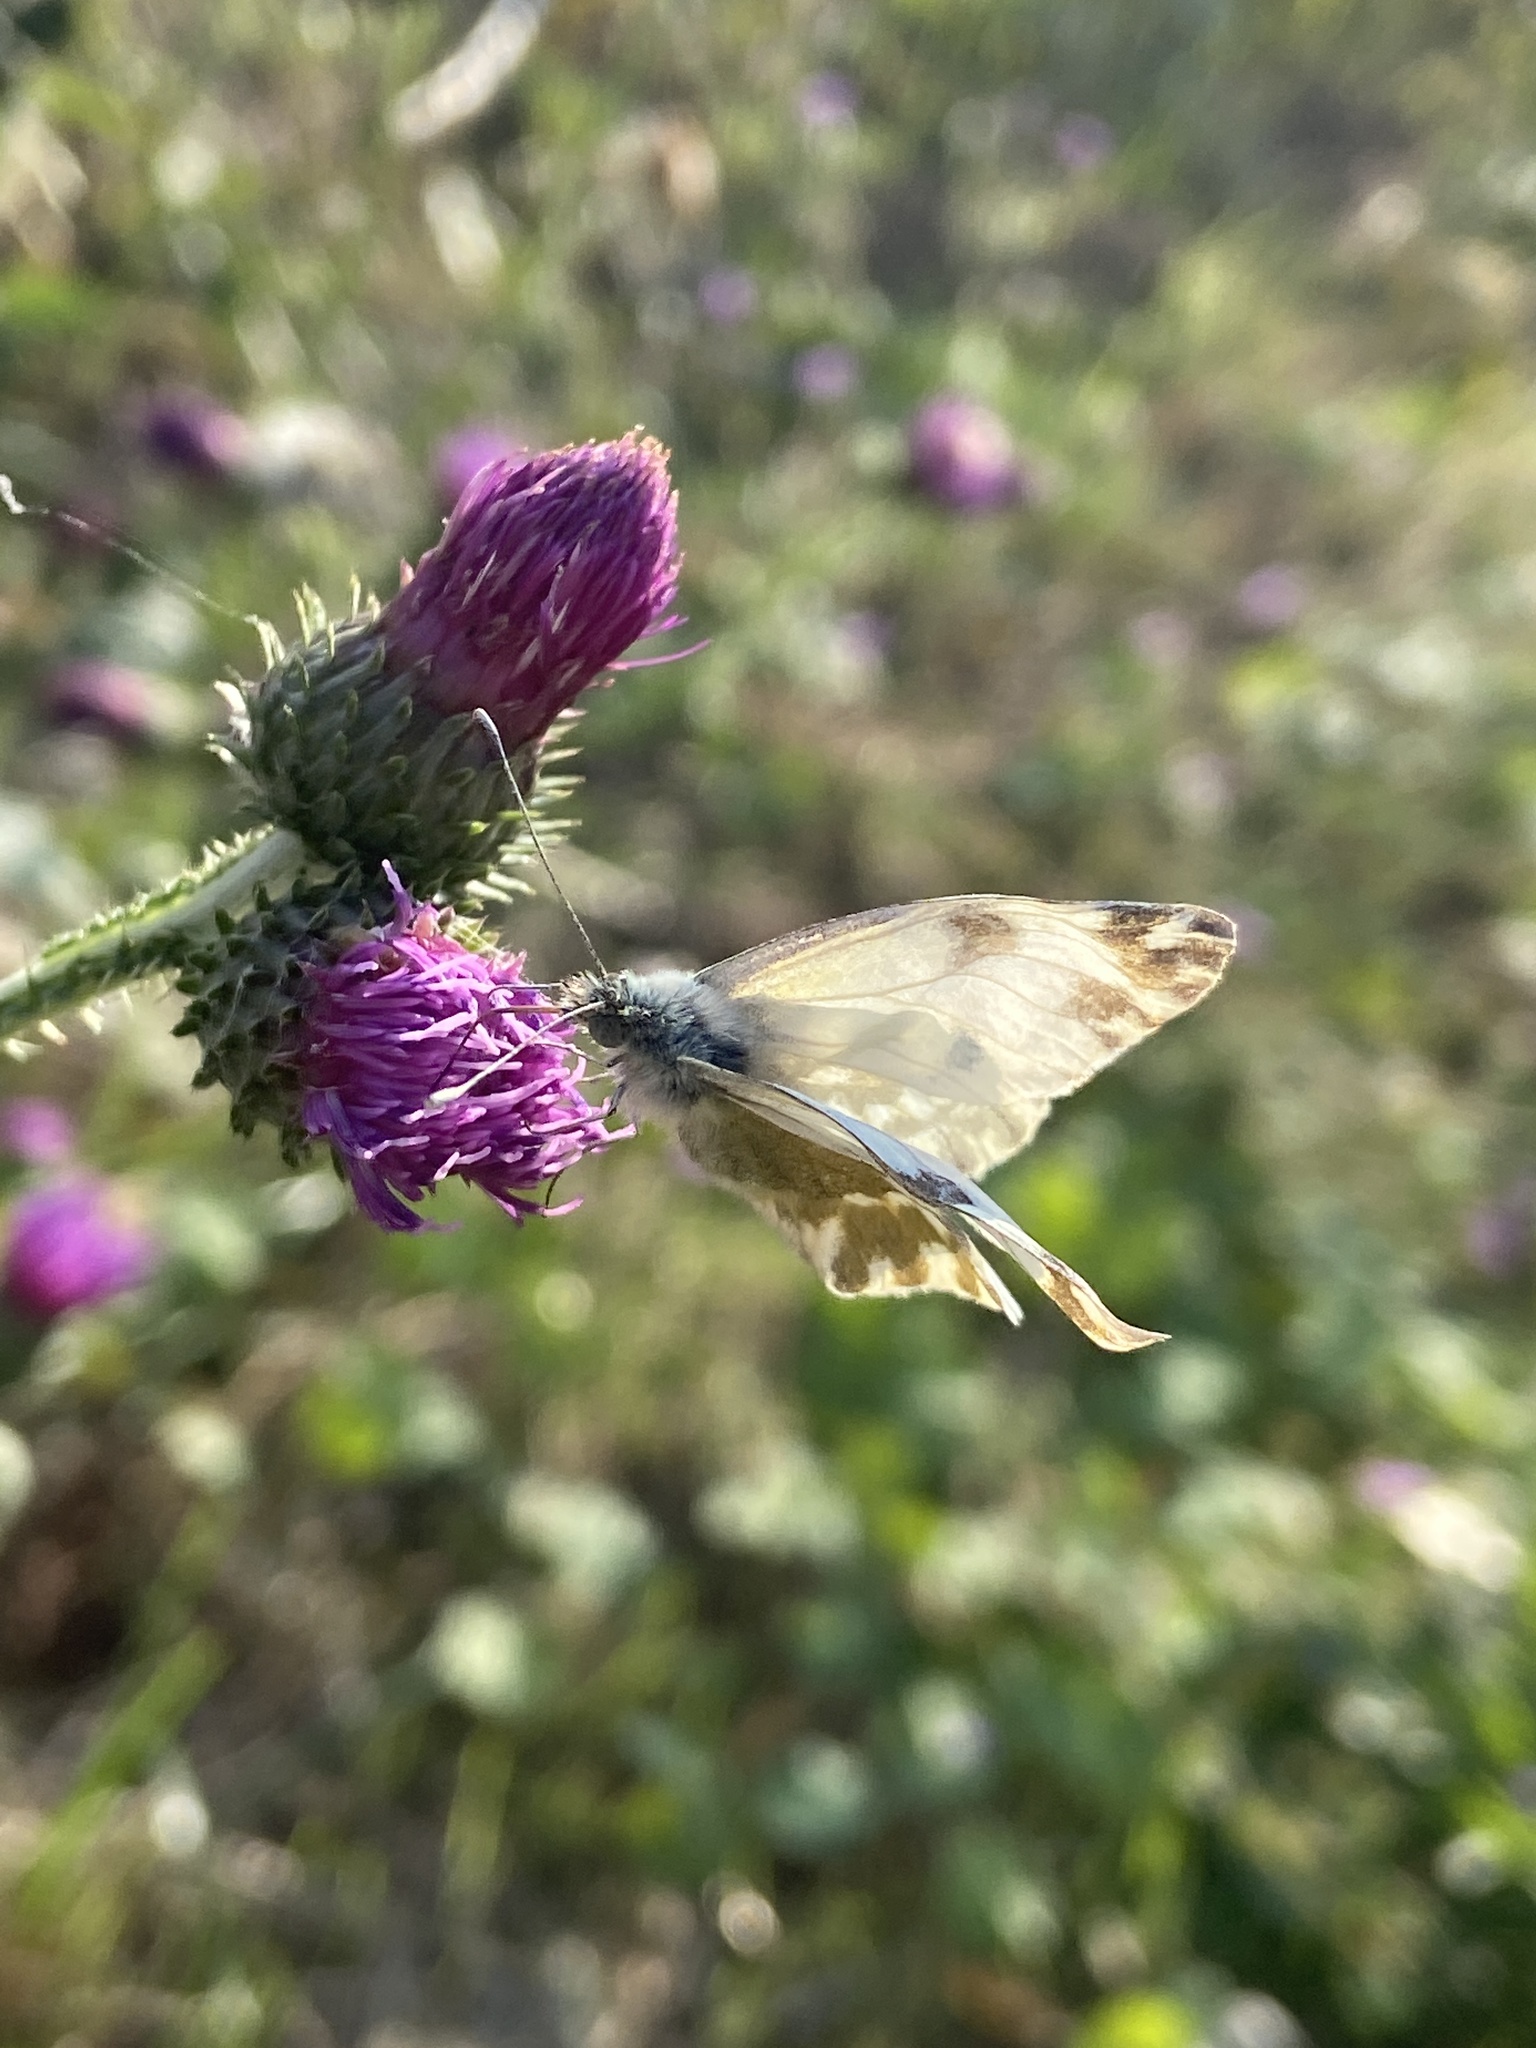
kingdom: Animalia
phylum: Arthropoda
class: Insecta
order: Lepidoptera
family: Pieridae
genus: Pontia
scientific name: Pontia edusa
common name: Eastern bath white
